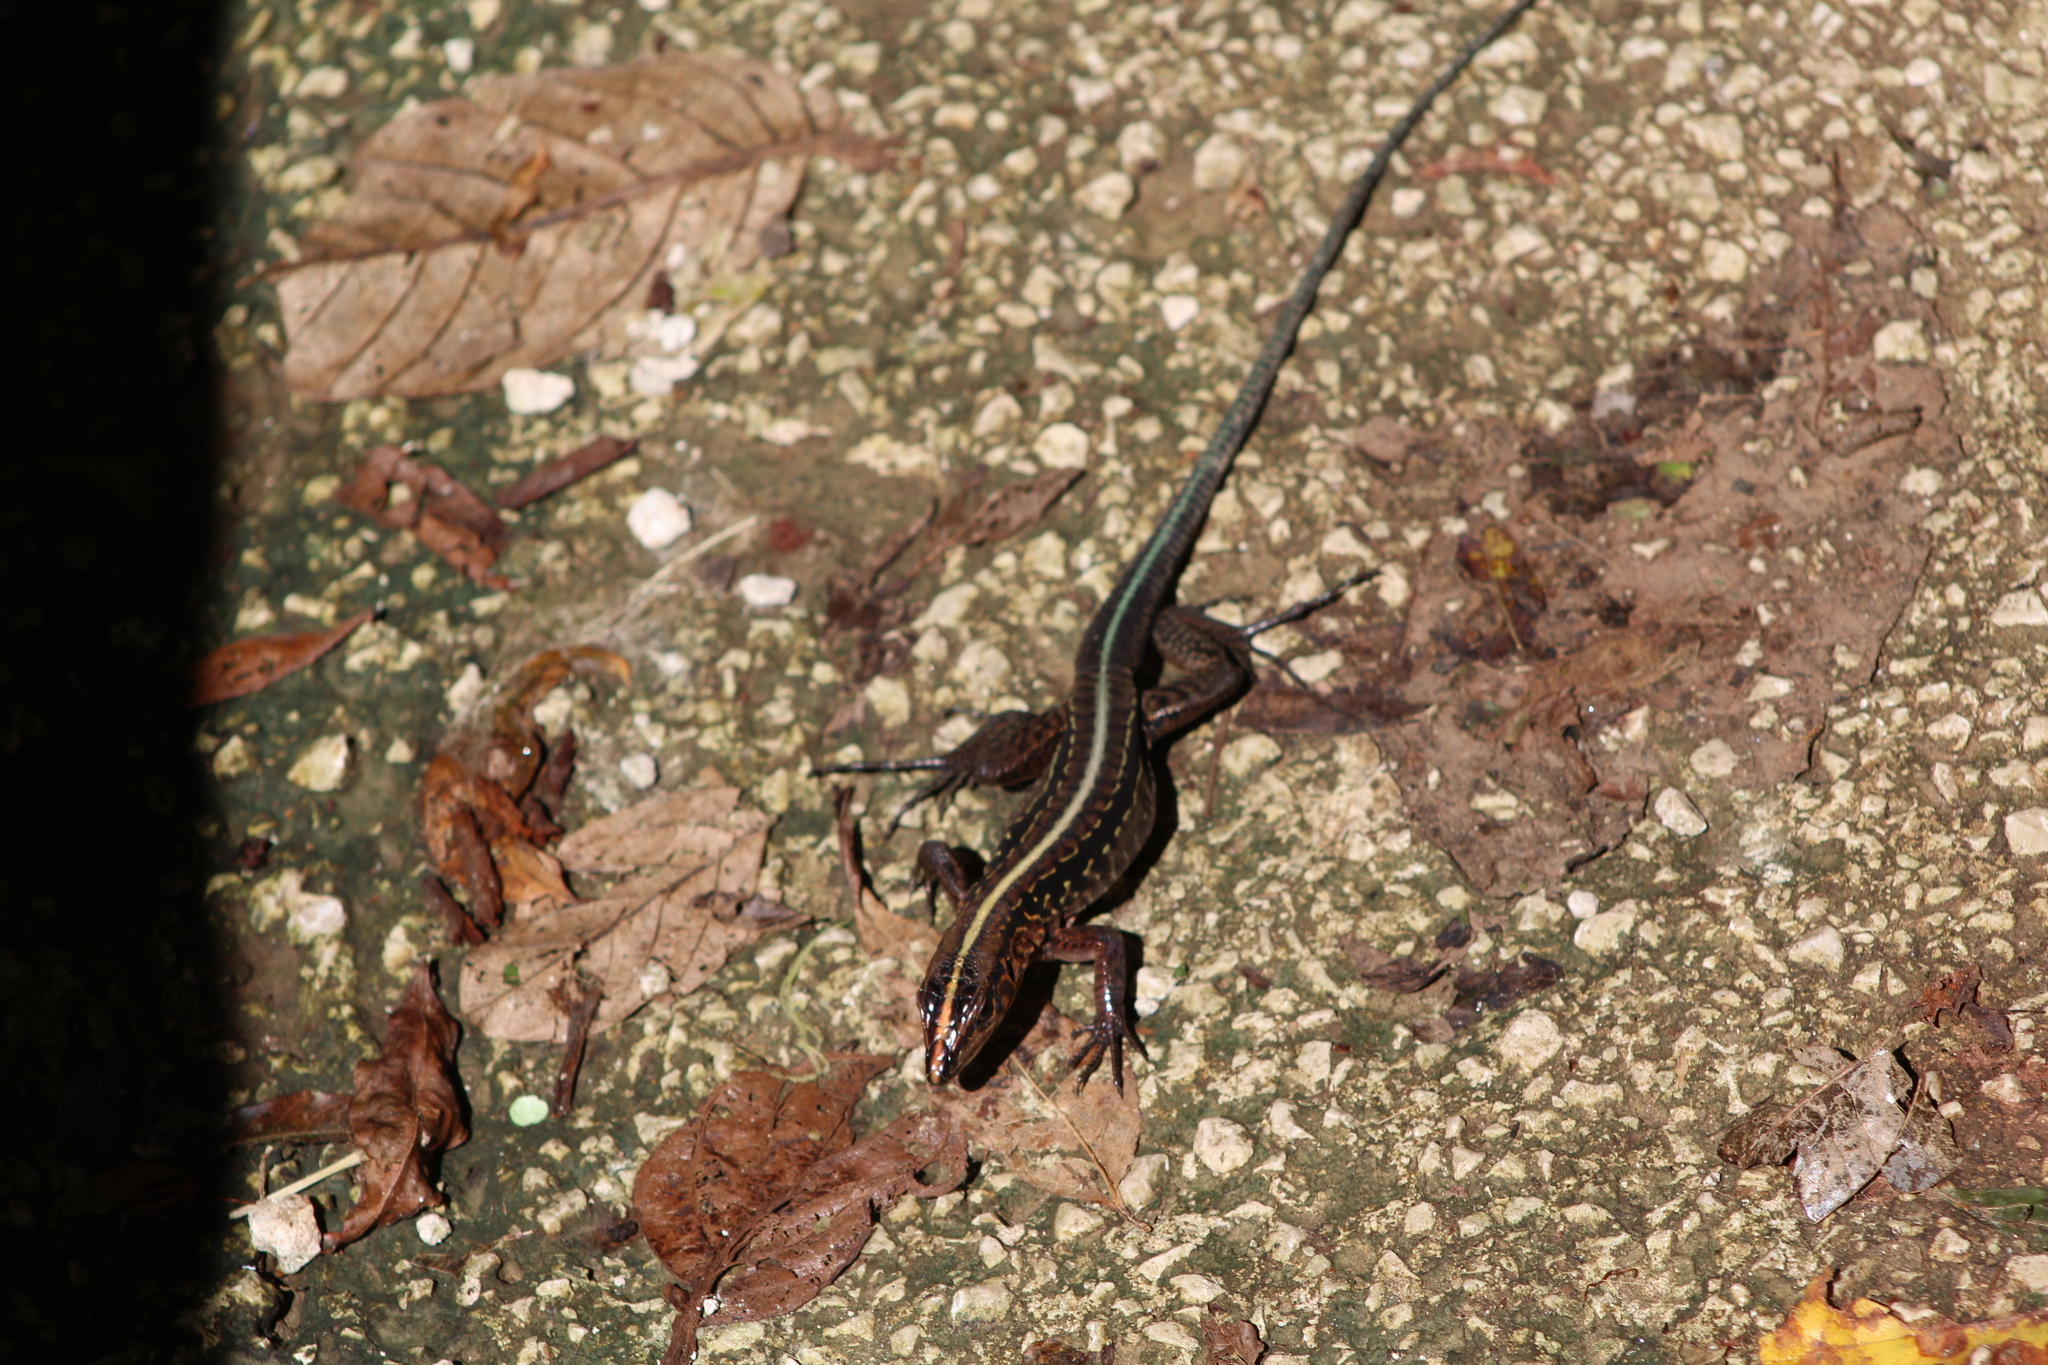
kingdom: Animalia
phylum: Chordata
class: Squamata
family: Teiidae
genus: Holcosus
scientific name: Holcosus festivus
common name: Middle american ameiva
